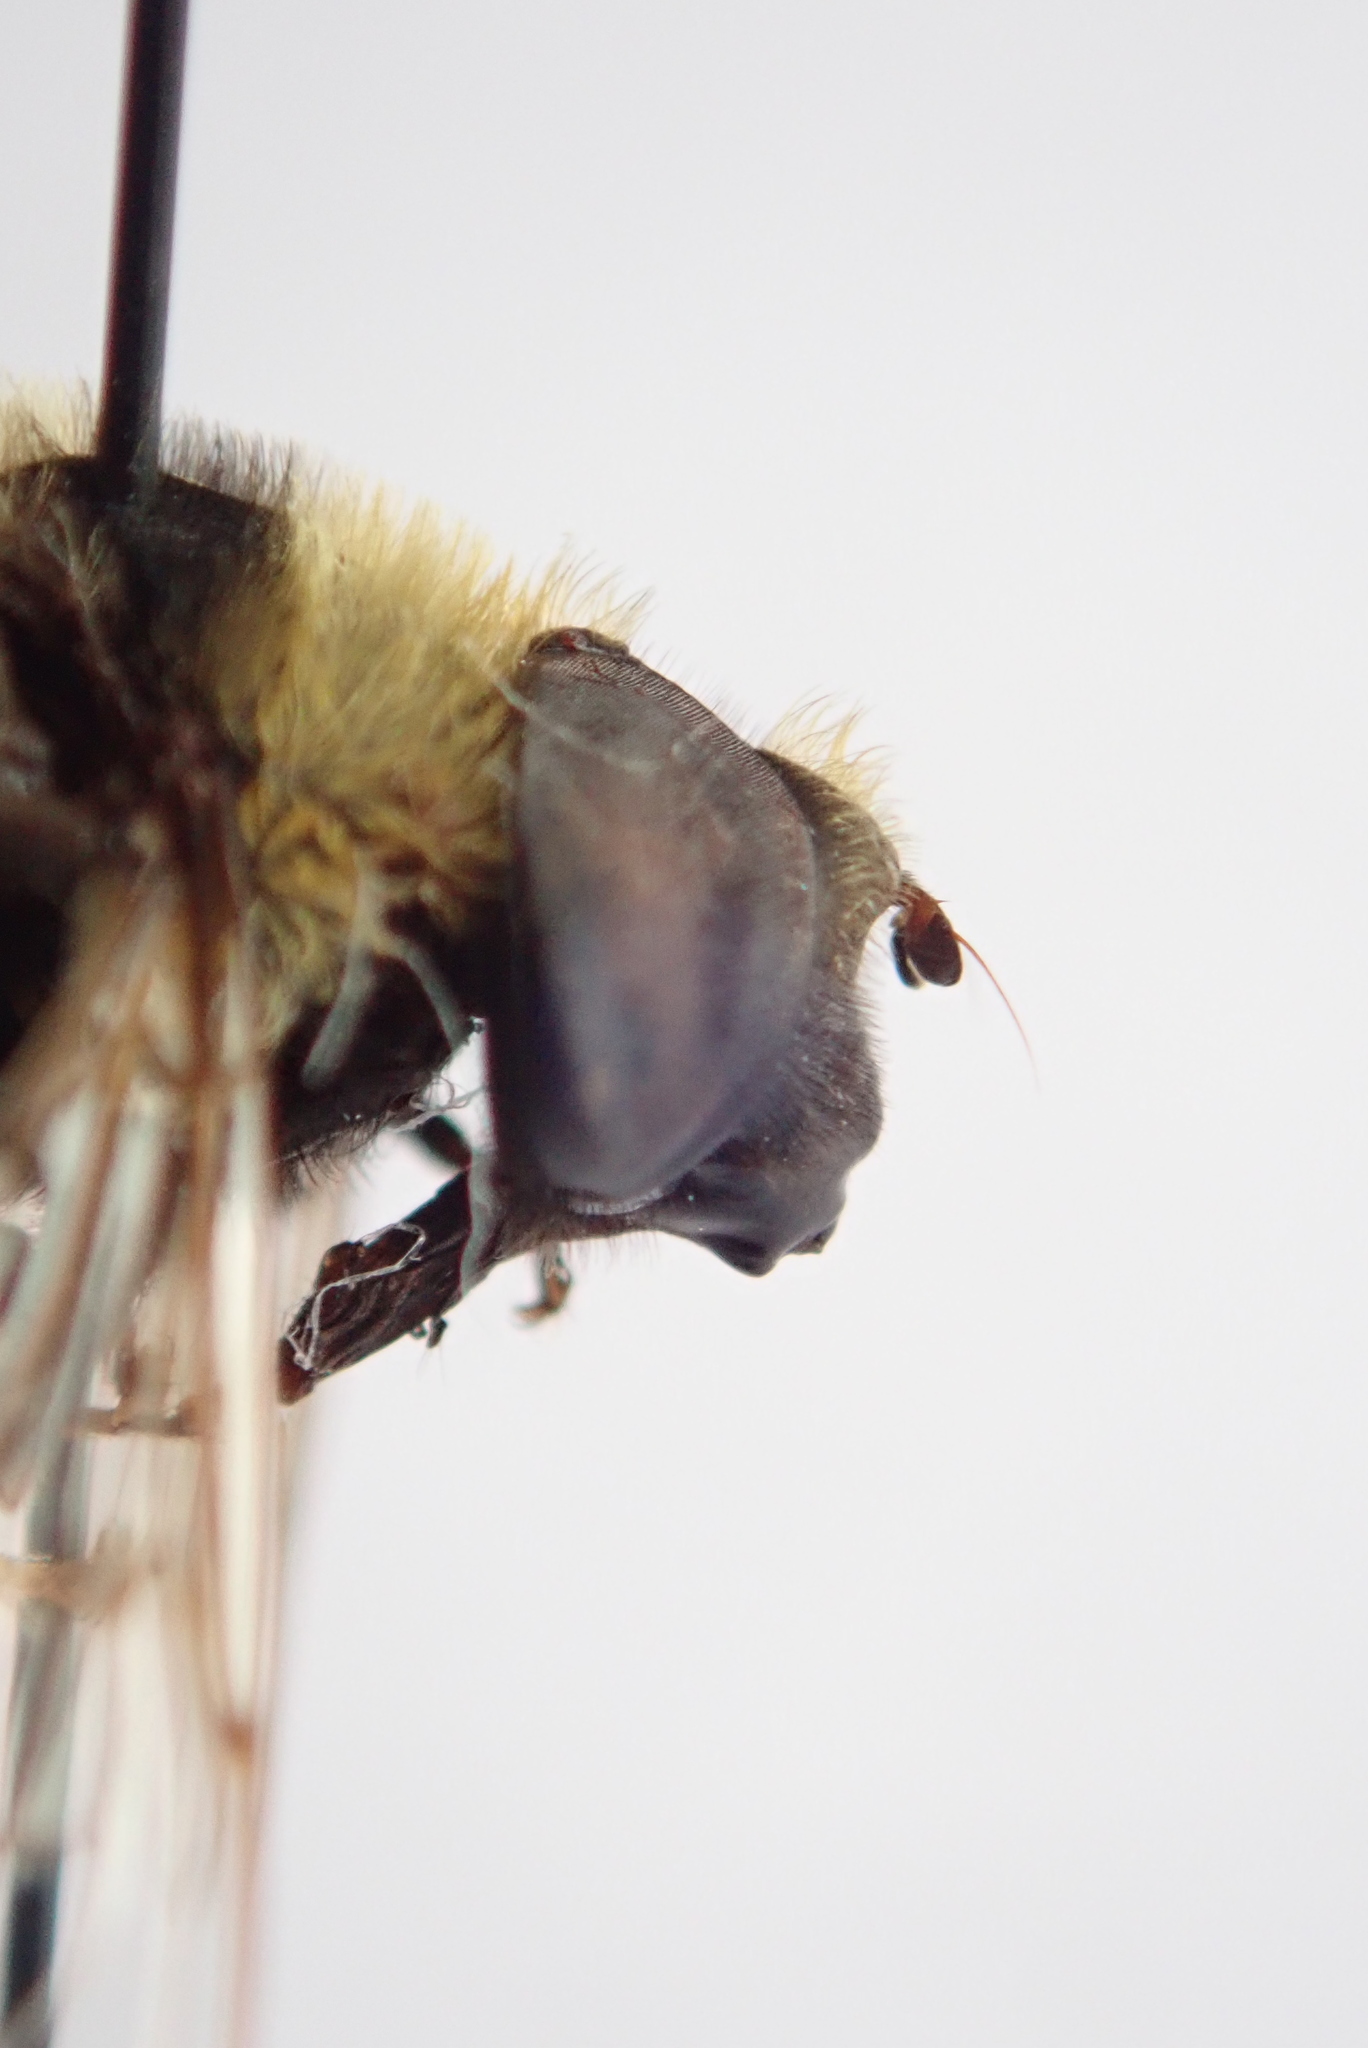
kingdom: Animalia
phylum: Arthropoda
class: Insecta
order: Diptera
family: Syrphidae
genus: Eristalis
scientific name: Eristalis flavipes
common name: Orange-legged drone fly
